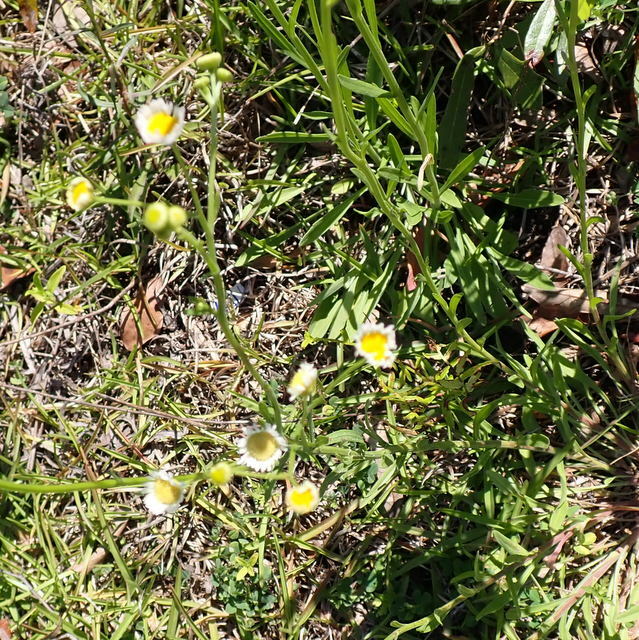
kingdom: Plantae
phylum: Tracheophyta
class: Magnoliopsida
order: Asterales
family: Asteraceae
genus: Erigeron
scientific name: Erigeron quercifolius
